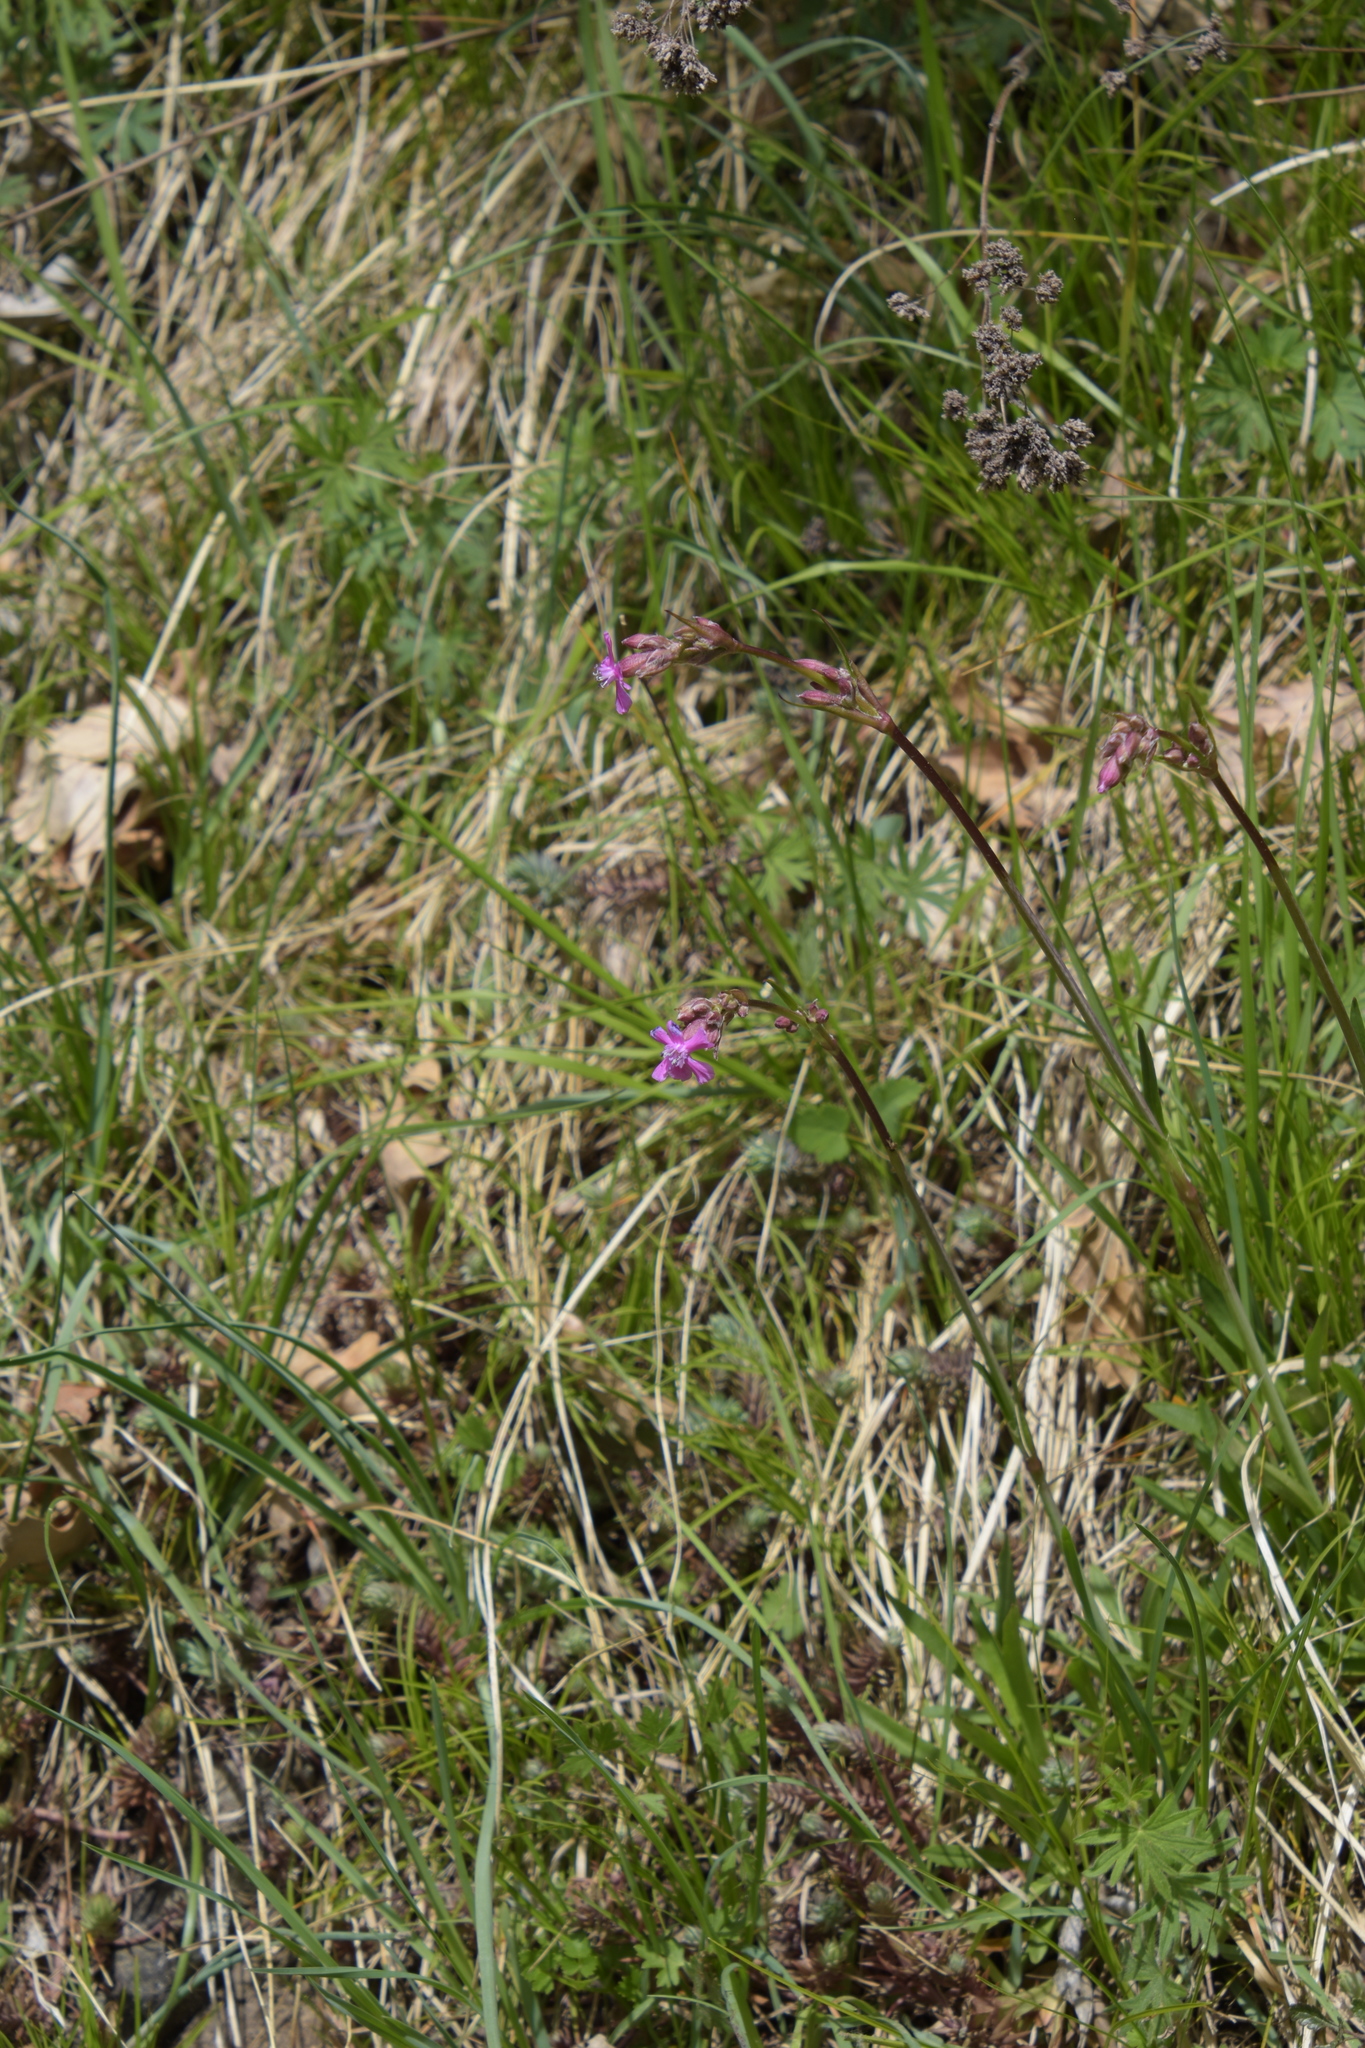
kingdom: Plantae
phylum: Tracheophyta
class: Magnoliopsida
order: Caryophyllales
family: Caryophyllaceae
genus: Viscaria
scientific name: Viscaria vulgaris
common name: Clammy campion
